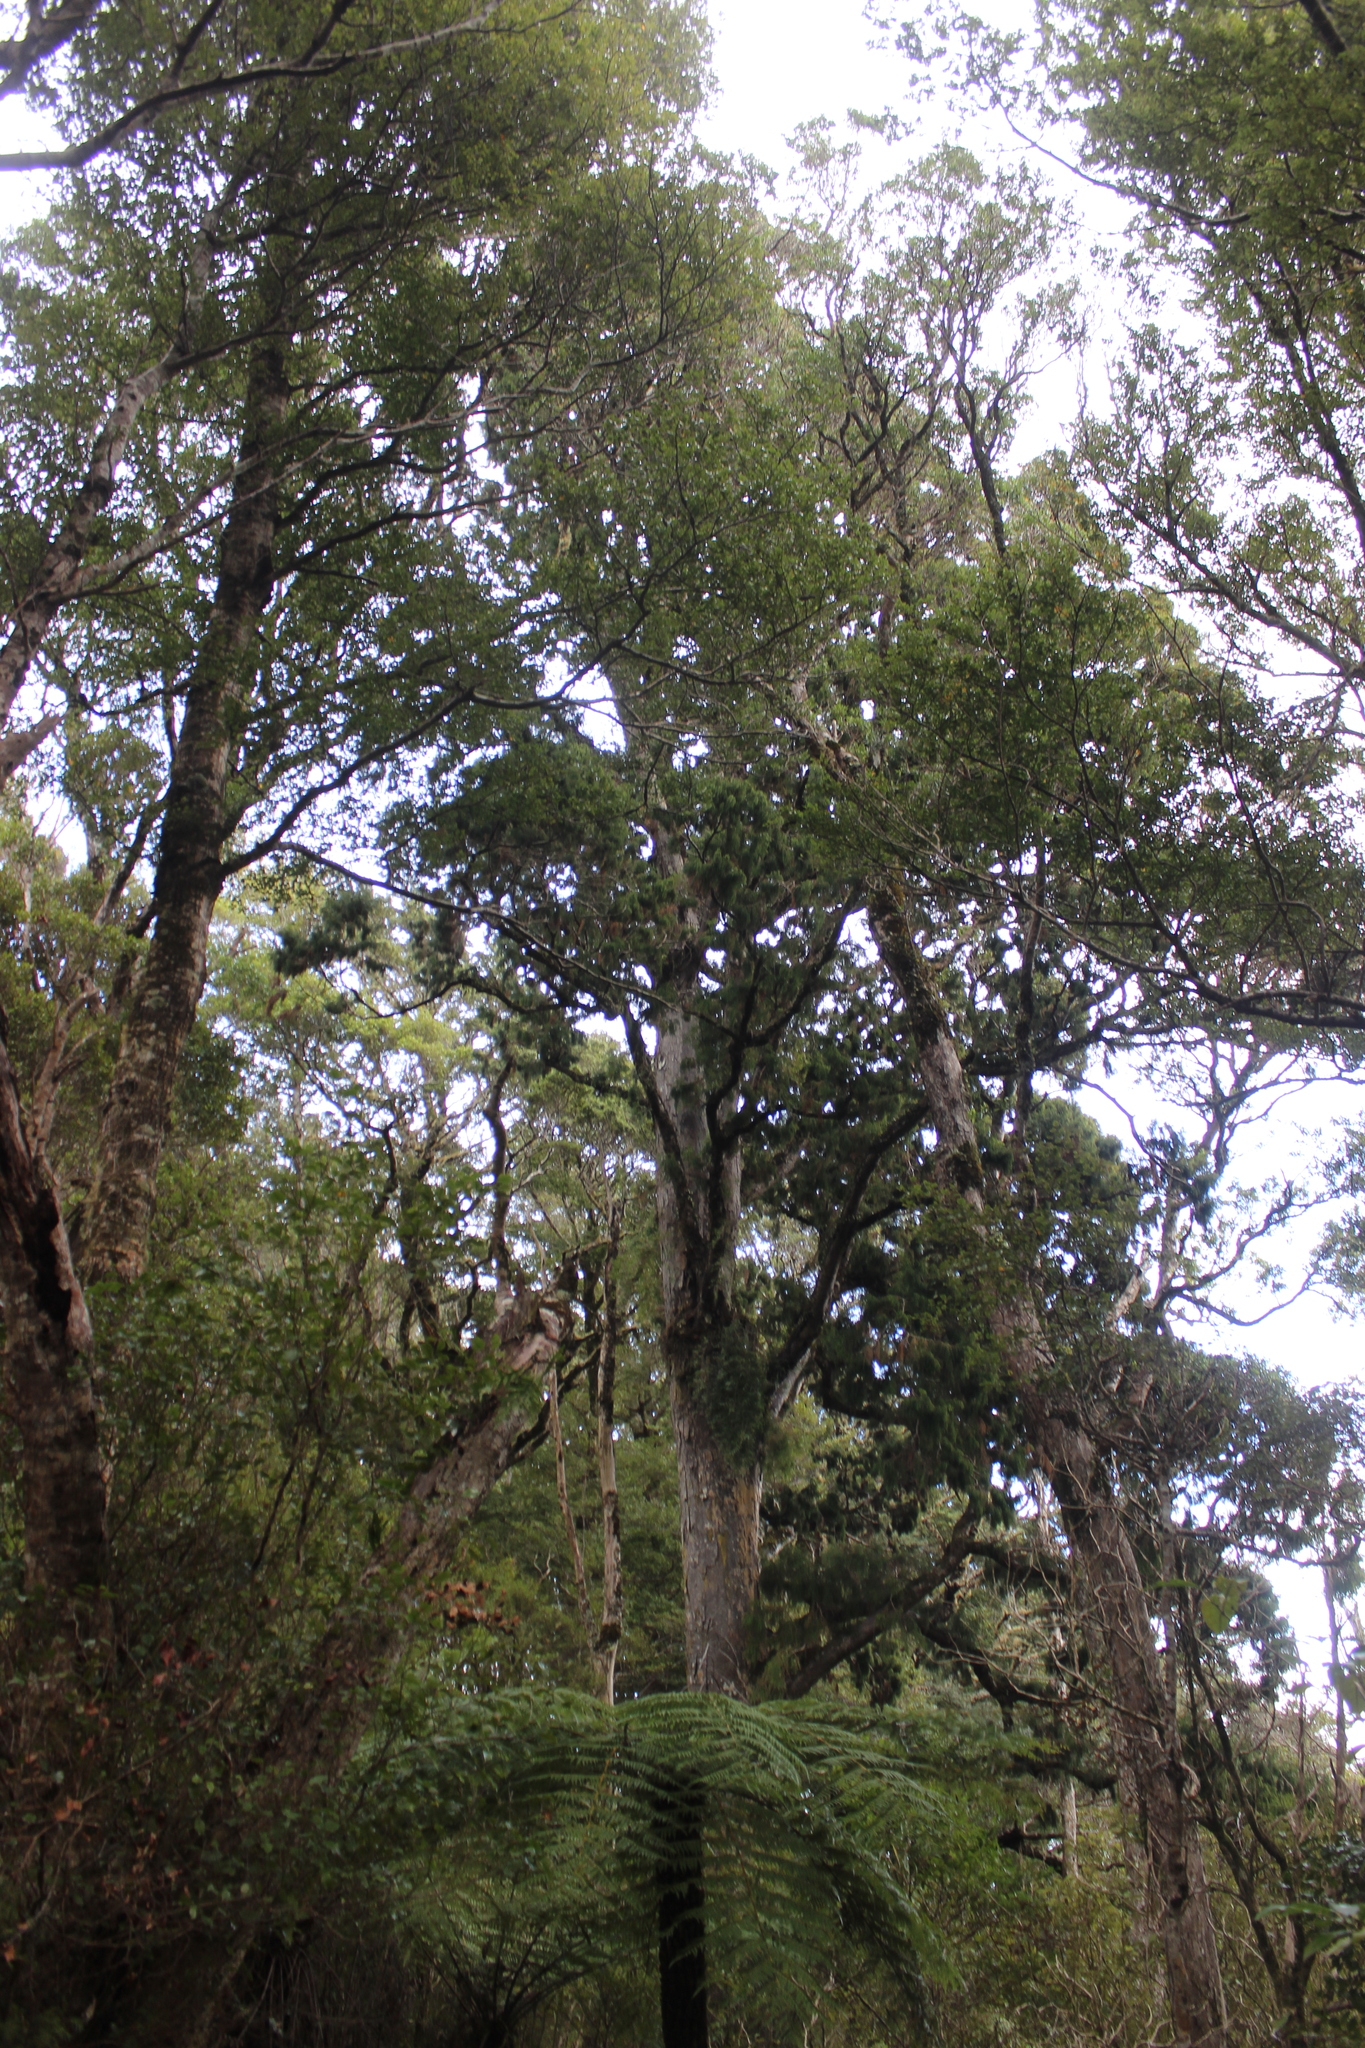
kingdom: Plantae
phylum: Tracheophyta
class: Pinopsida
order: Pinales
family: Podocarpaceae
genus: Dacrydium
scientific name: Dacrydium cupressinum
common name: Red pine
